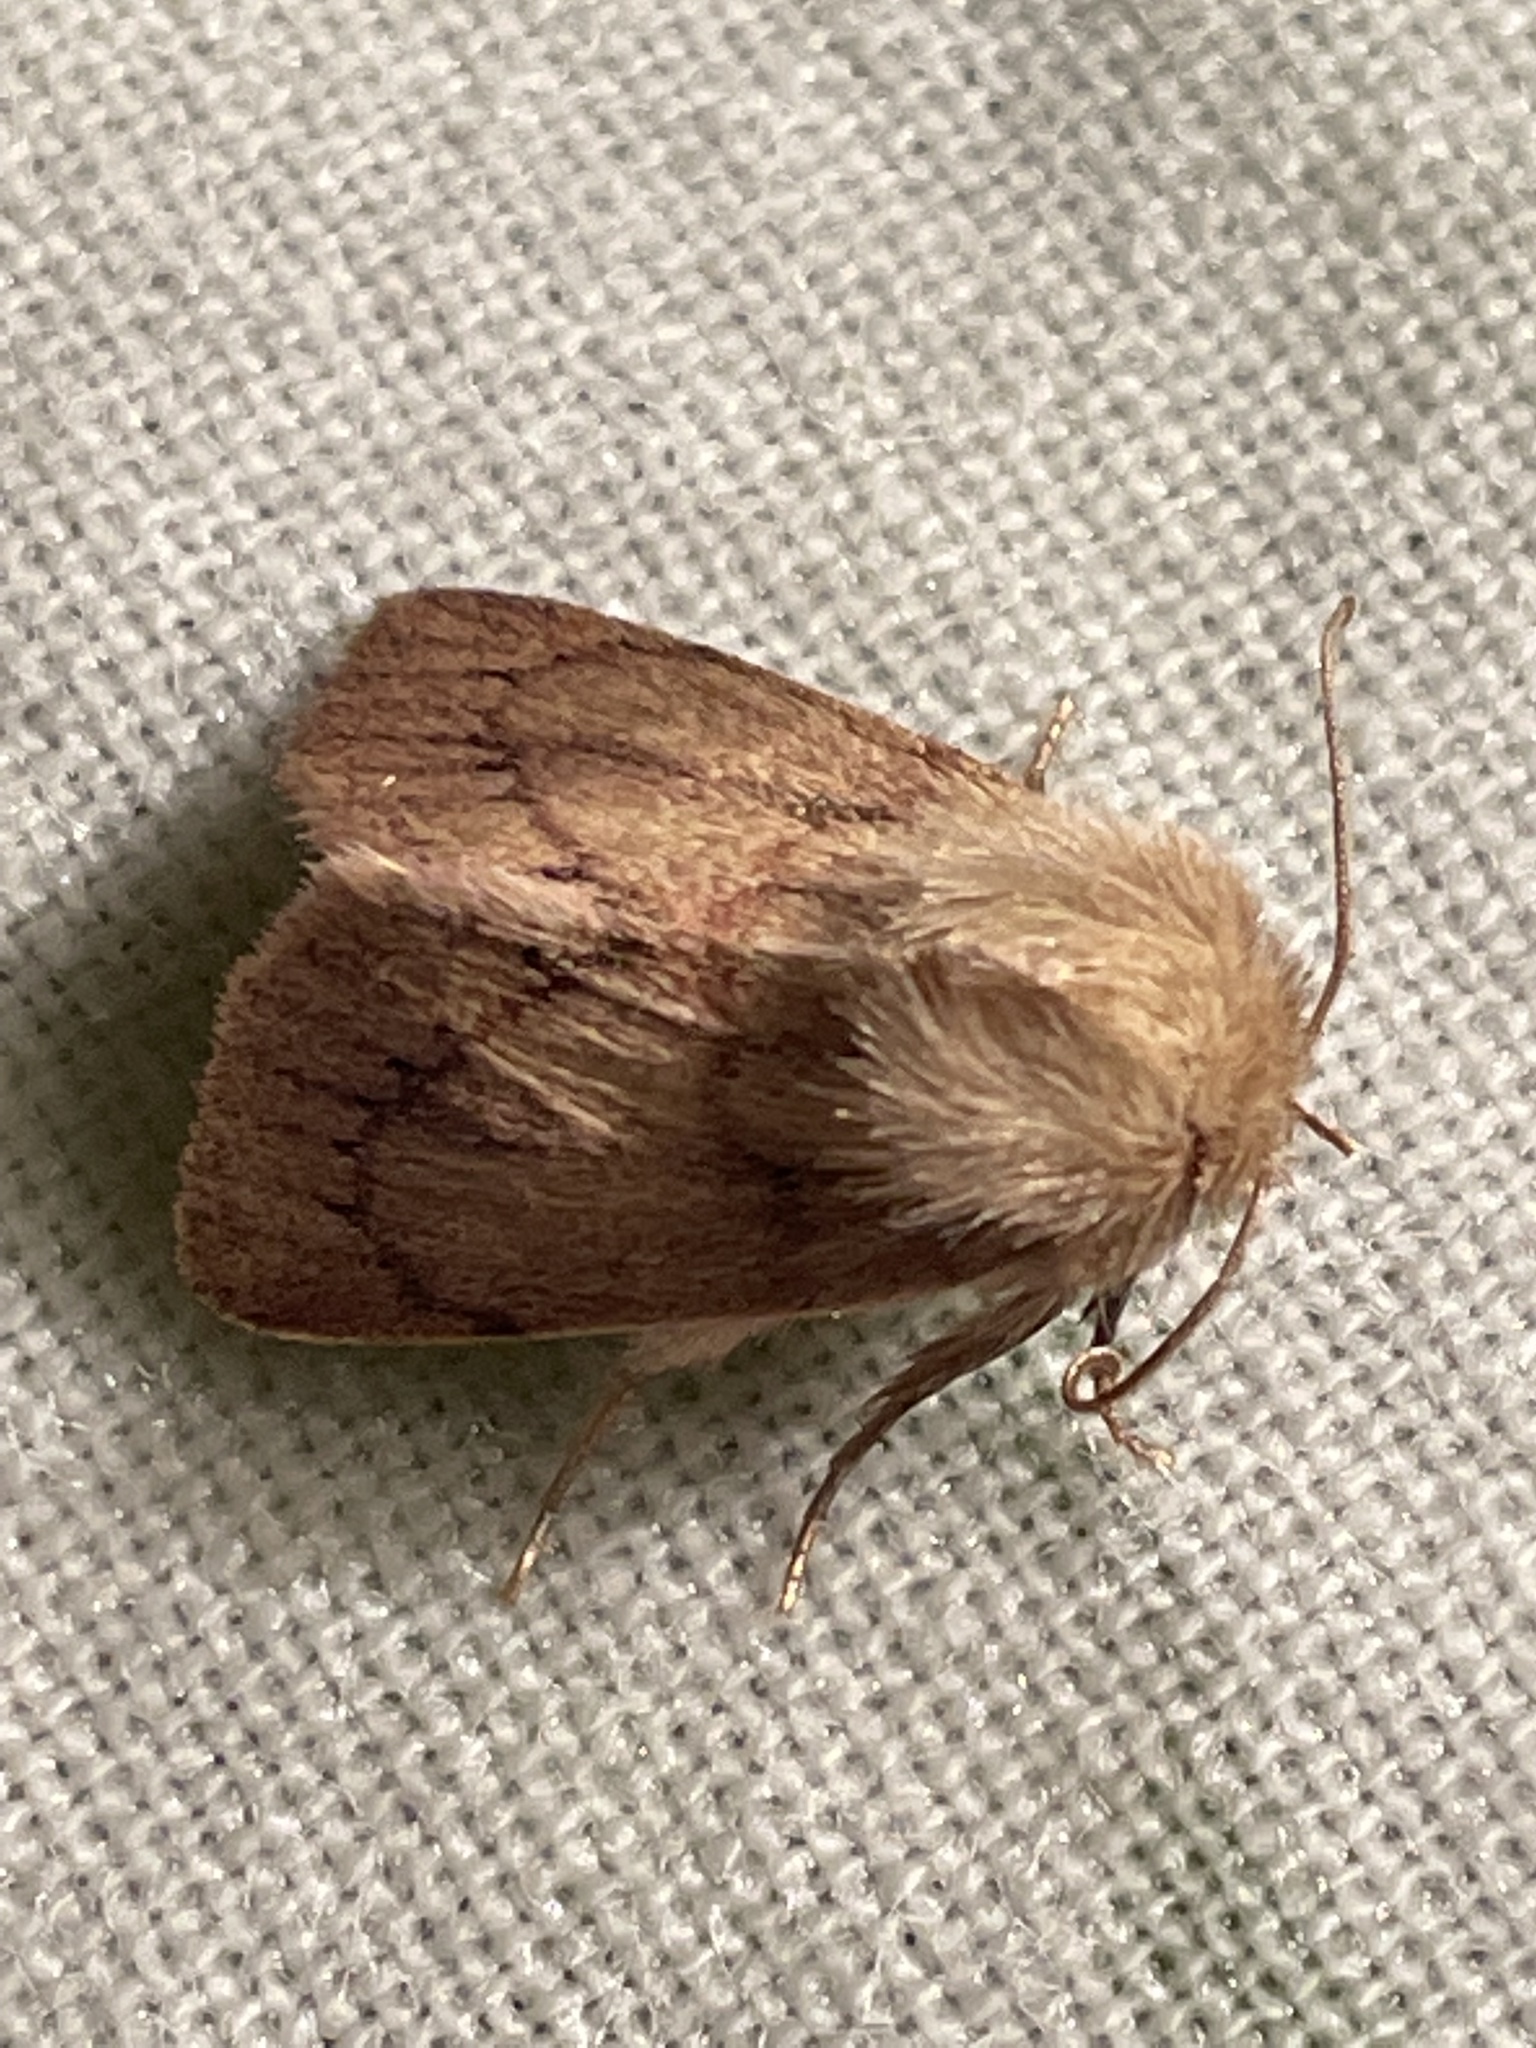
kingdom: Animalia
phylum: Arthropoda
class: Insecta
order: Lepidoptera
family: Noctuidae
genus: Denticucullus
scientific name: Denticucullus pygmina
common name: Small wainscot
